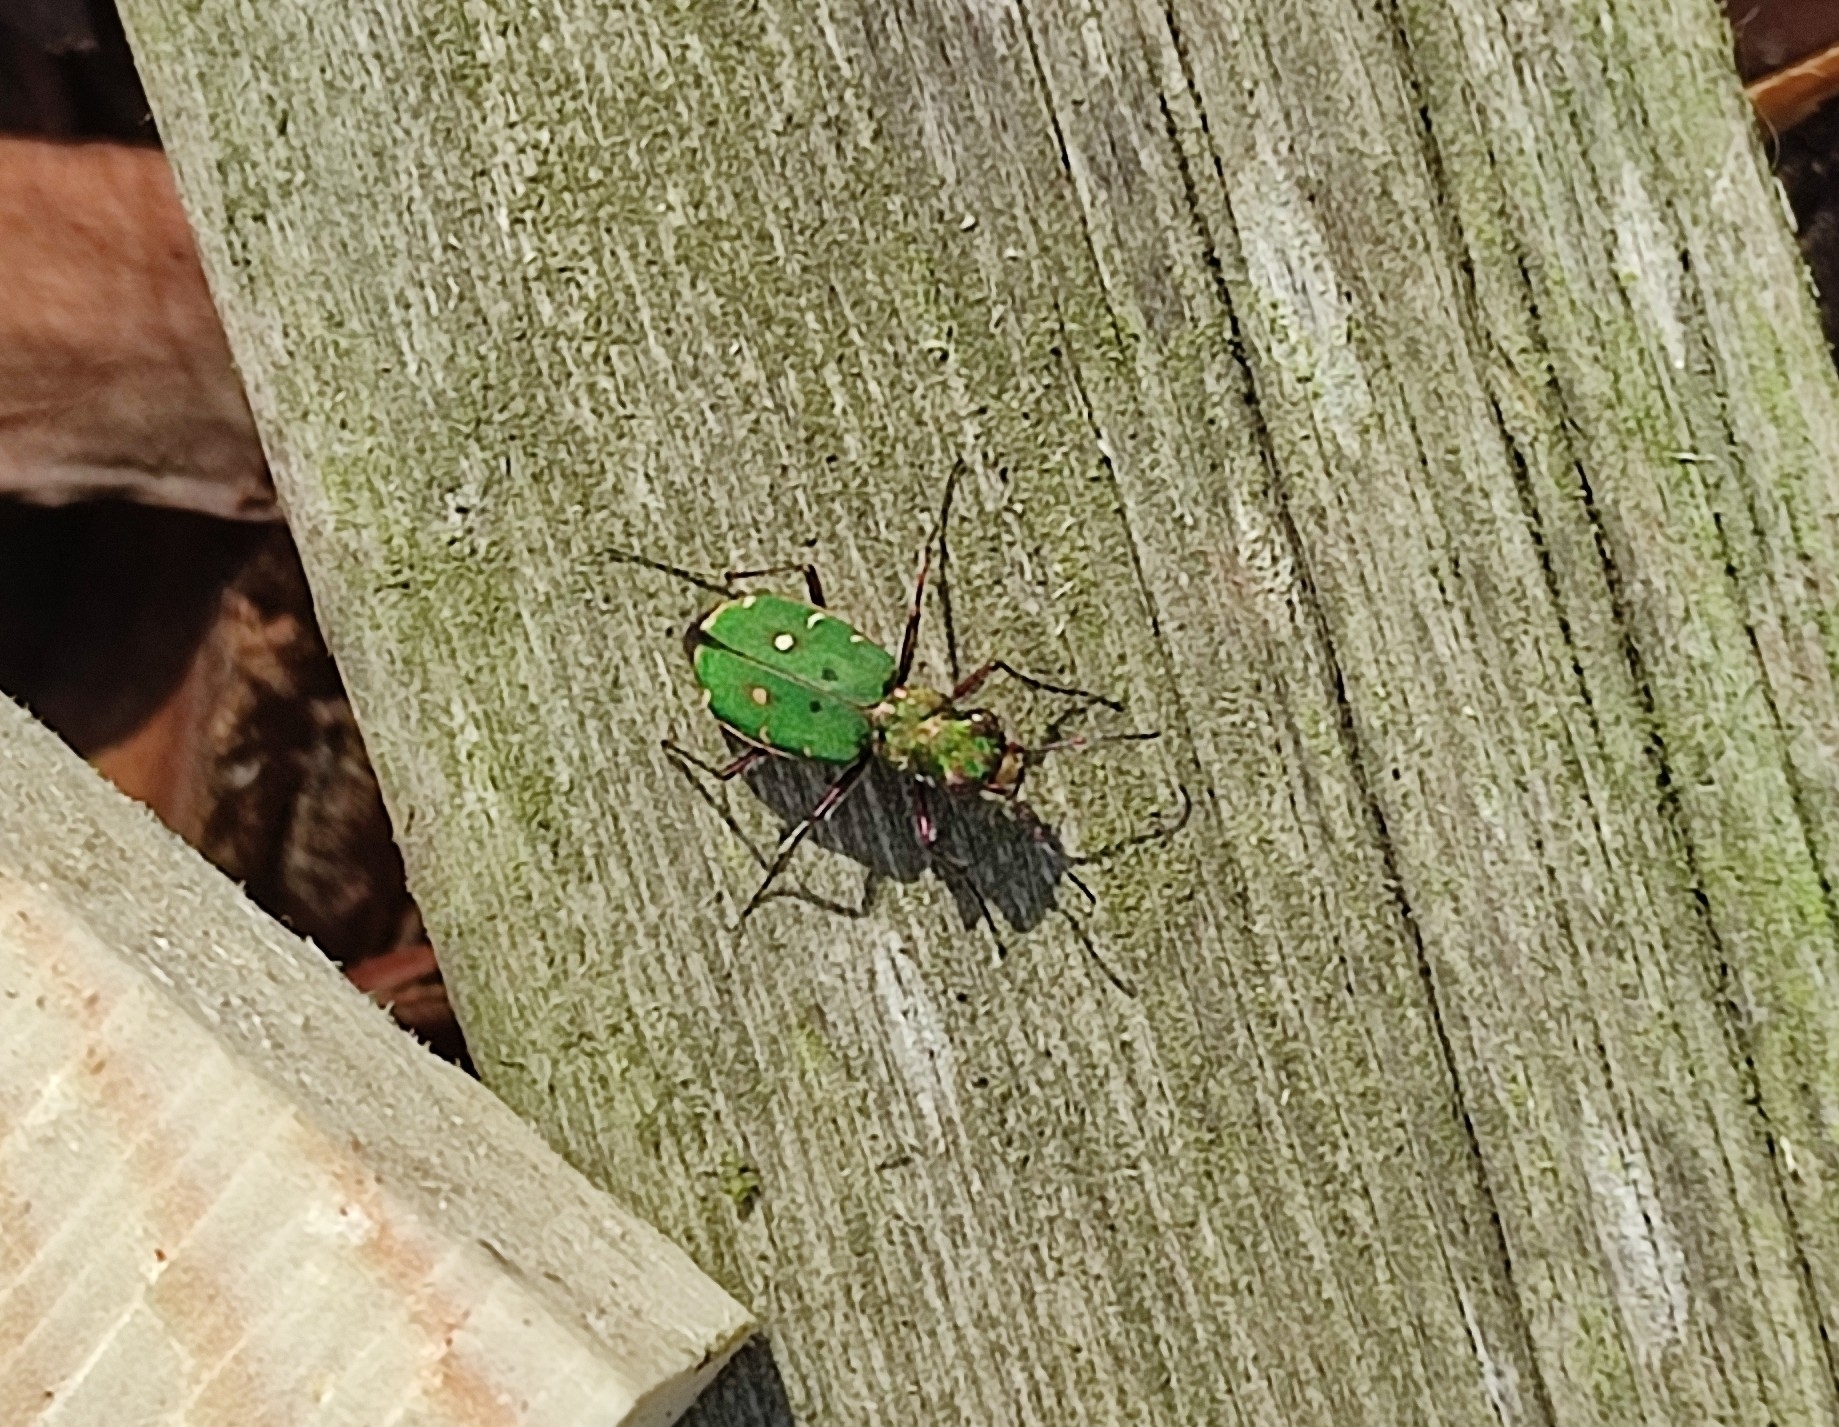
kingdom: Animalia
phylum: Arthropoda
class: Insecta
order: Coleoptera
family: Carabidae
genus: Cicindela
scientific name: Cicindela campestris
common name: Common tiger beetle
